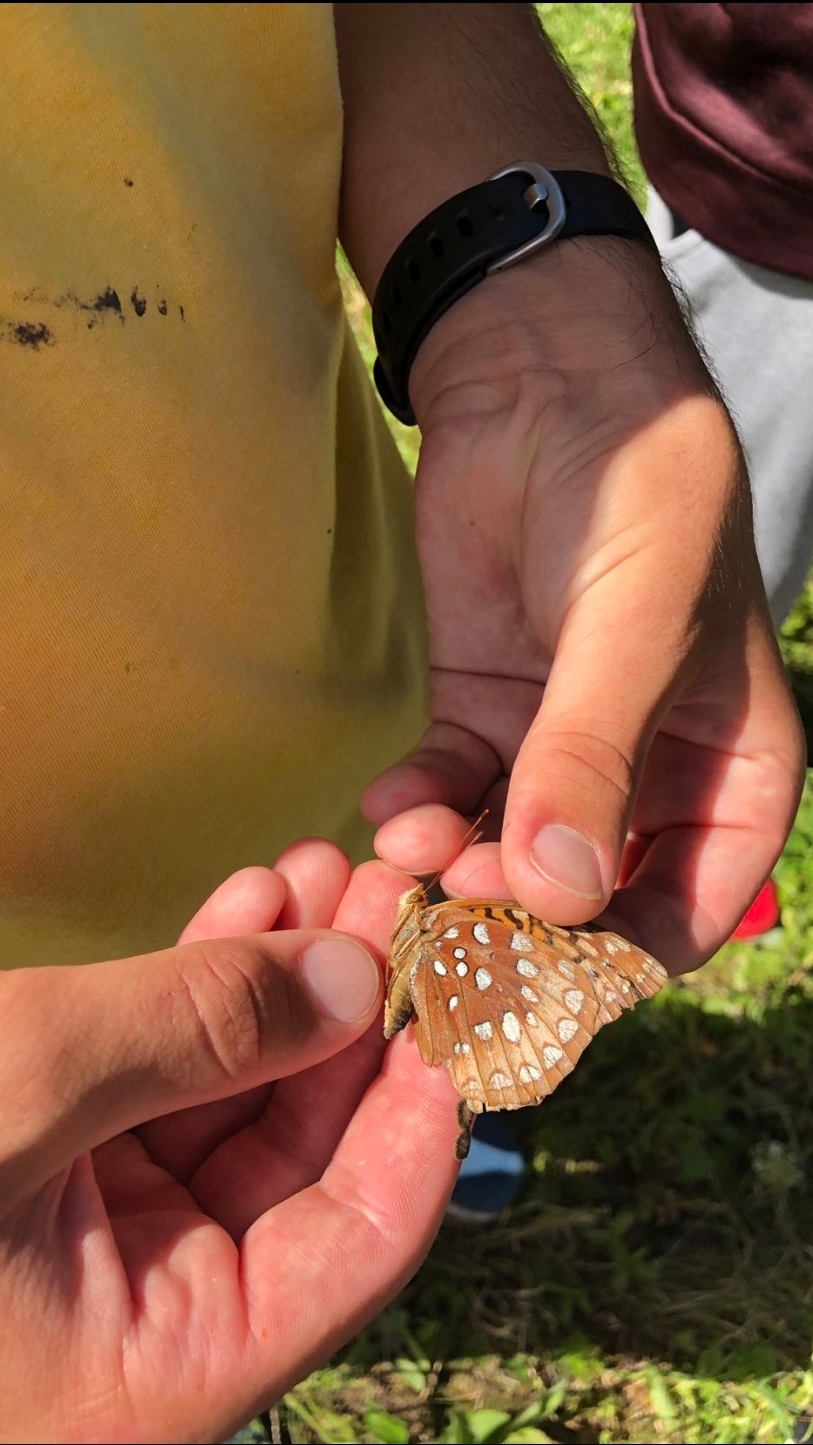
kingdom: Animalia
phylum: Arthropoda
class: Insecta
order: Lepidoptera
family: Nymphalidae
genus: Speyeria
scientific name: Speyeria cybele
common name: Great spangled fritillary
